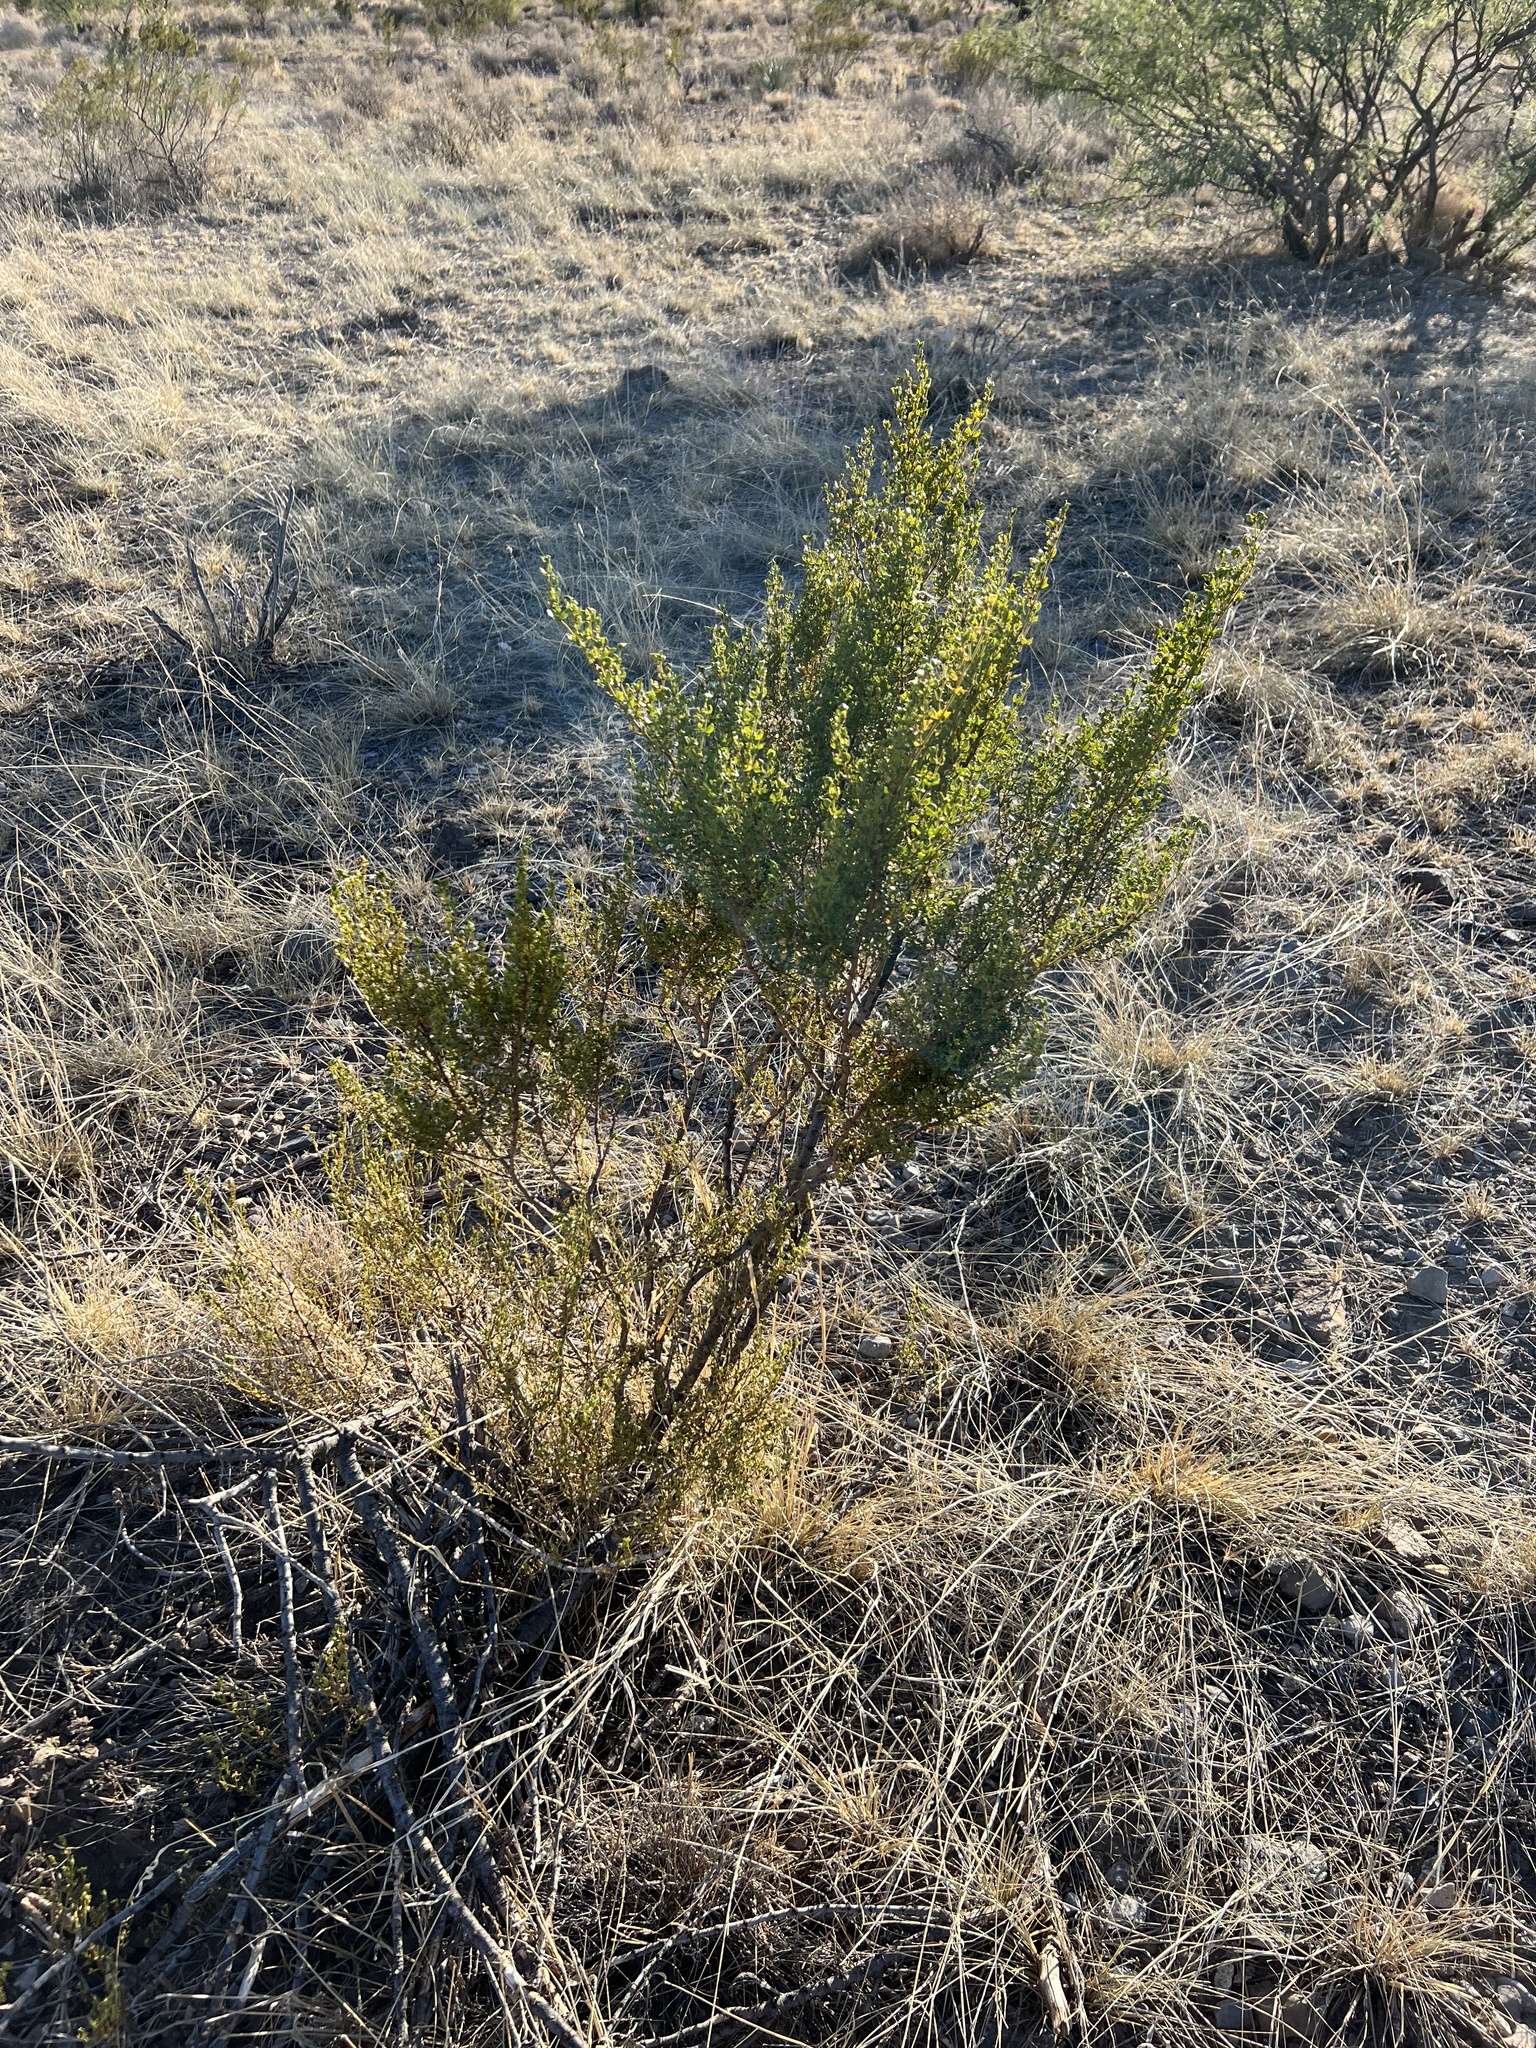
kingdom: Plantae
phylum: Tracheophyta
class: Magnoliopsida
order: Zygophyllales
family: Zygophyllaceae
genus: Larrea
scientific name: Larrea tridentata
